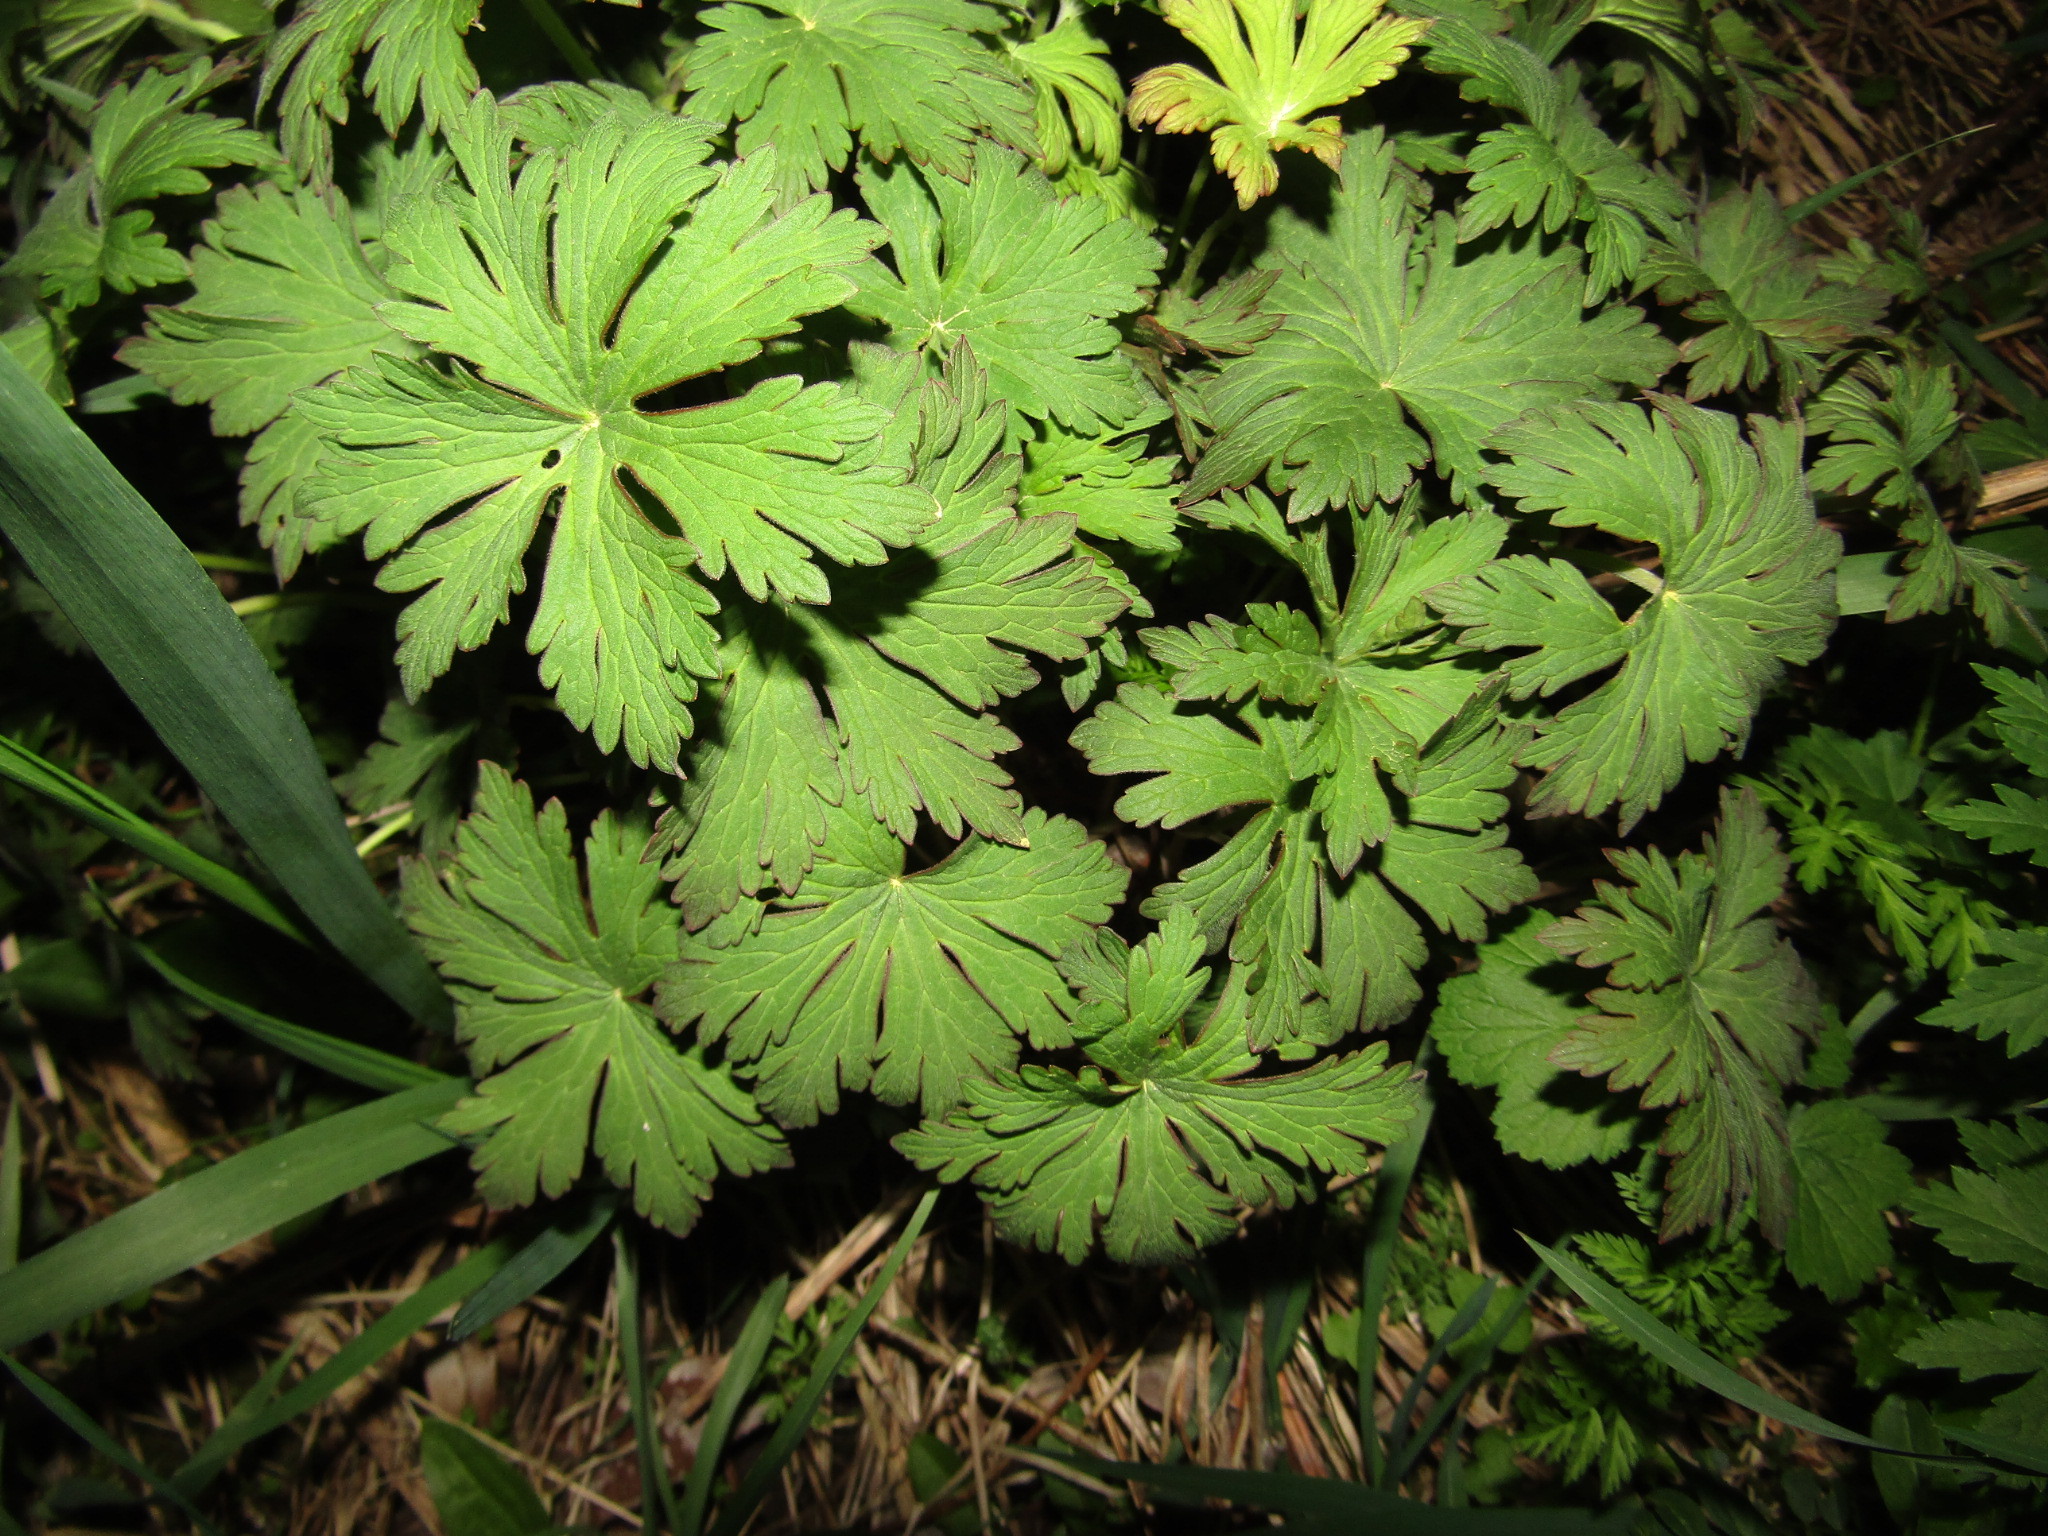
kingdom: Plantae
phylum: Tracheophyta
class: Magnoliopsida
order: Geraniales
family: Geraniaceae
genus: Geranium
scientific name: Geranium pratense
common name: Meadow crane's-bill
